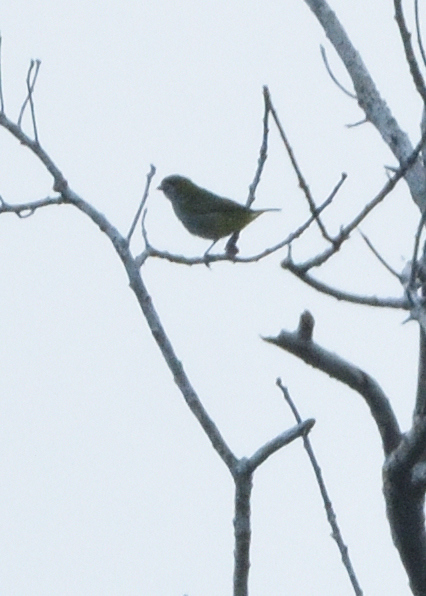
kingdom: Animalia
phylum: Chordata
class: Aves
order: Passeriformes
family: Fringillidae
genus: Euphonia
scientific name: Euphonia chrysopasta
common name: White-lored euphonia
